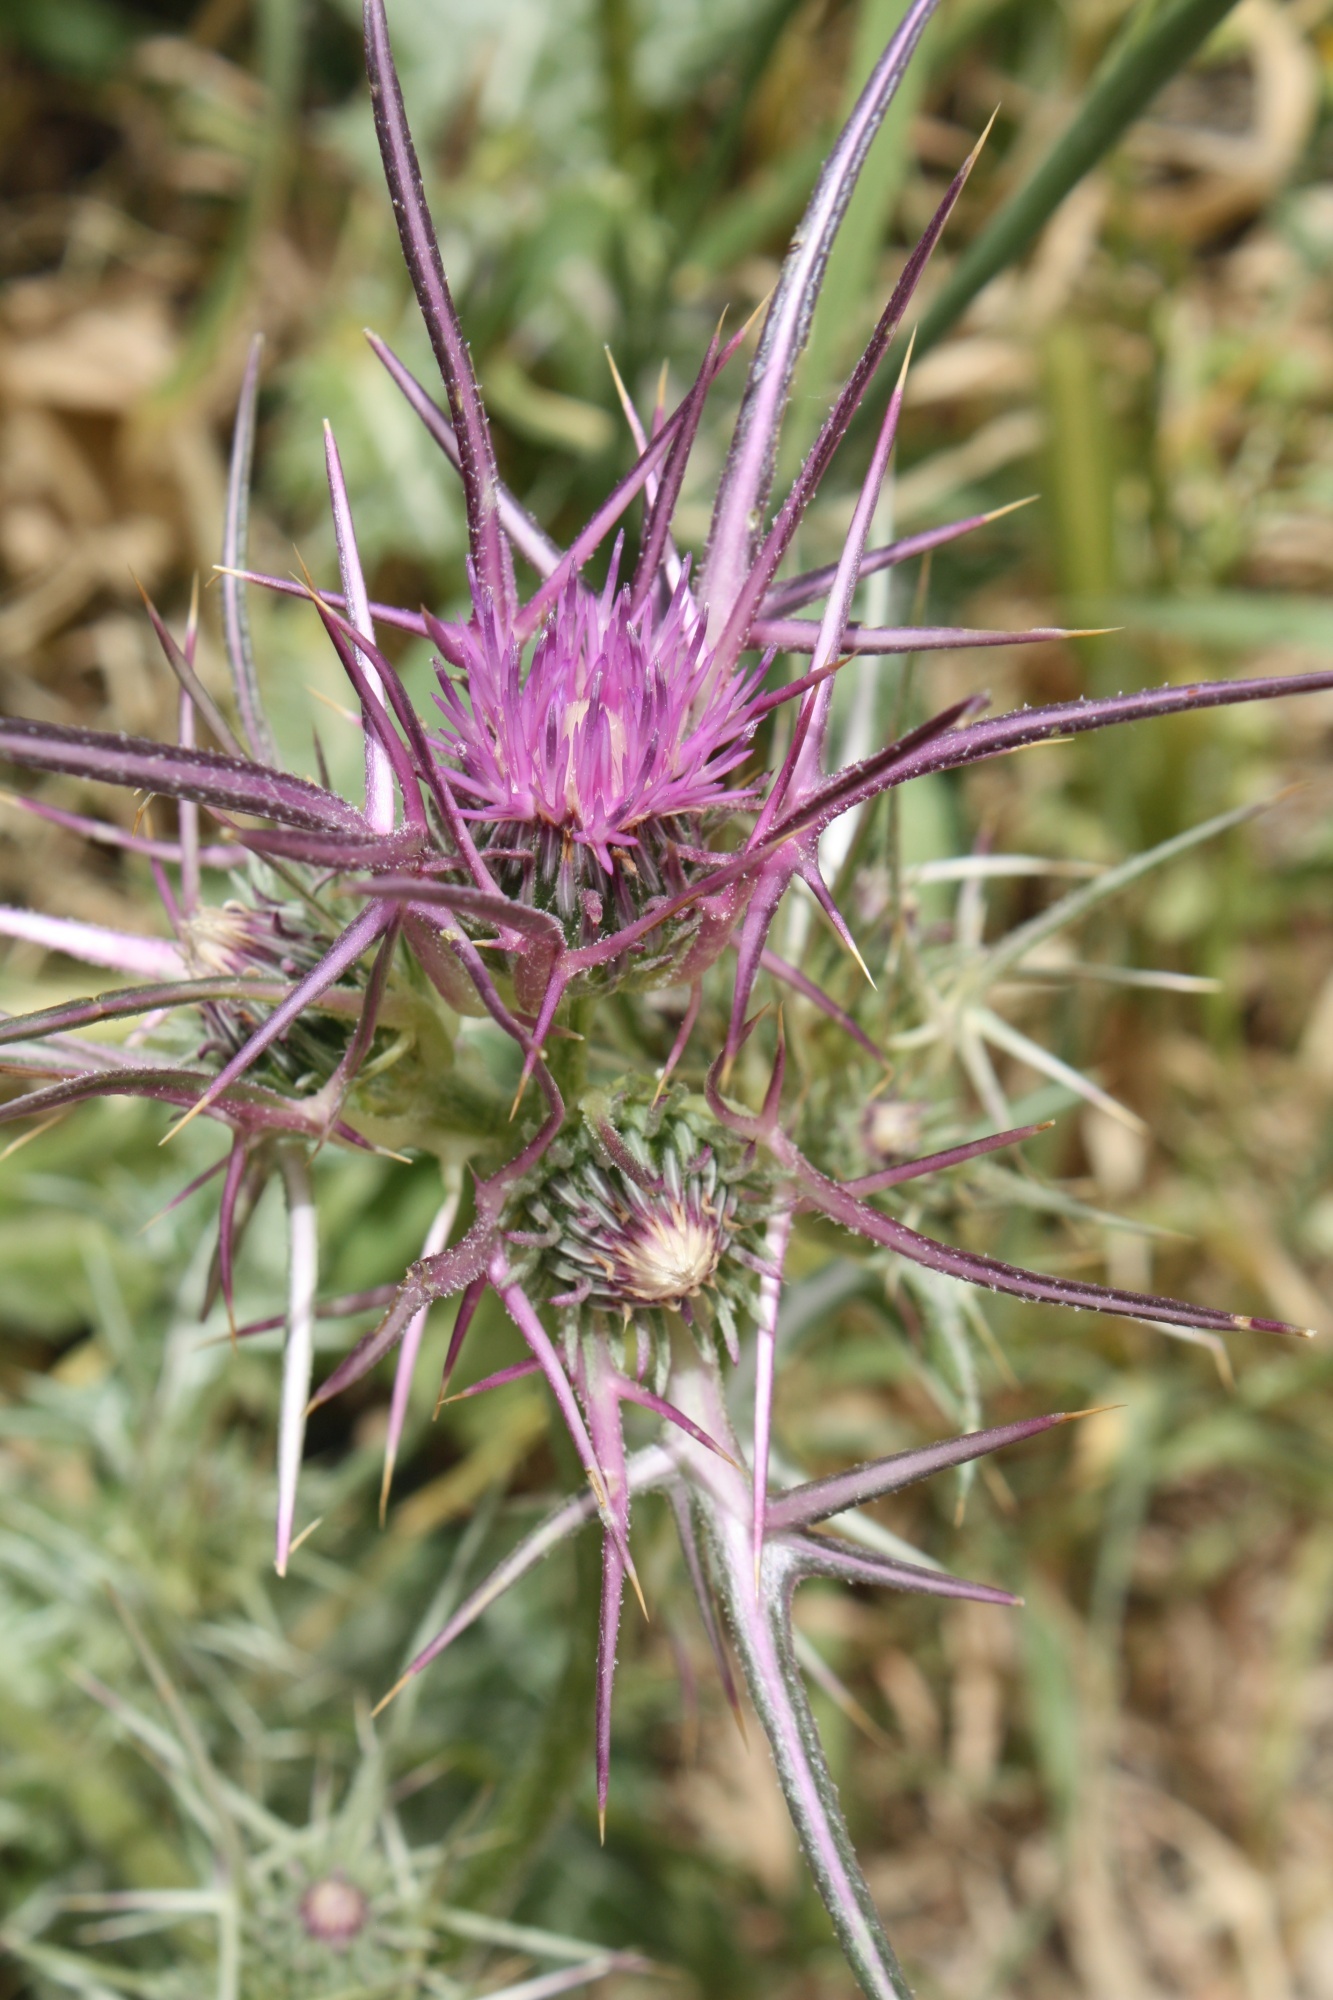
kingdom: Plantae
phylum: Tracheophyta
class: Magnoliopsida
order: Asterales
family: Asteraceae
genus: Notobasis
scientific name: Notobasis syriaca
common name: Syrian thistle
